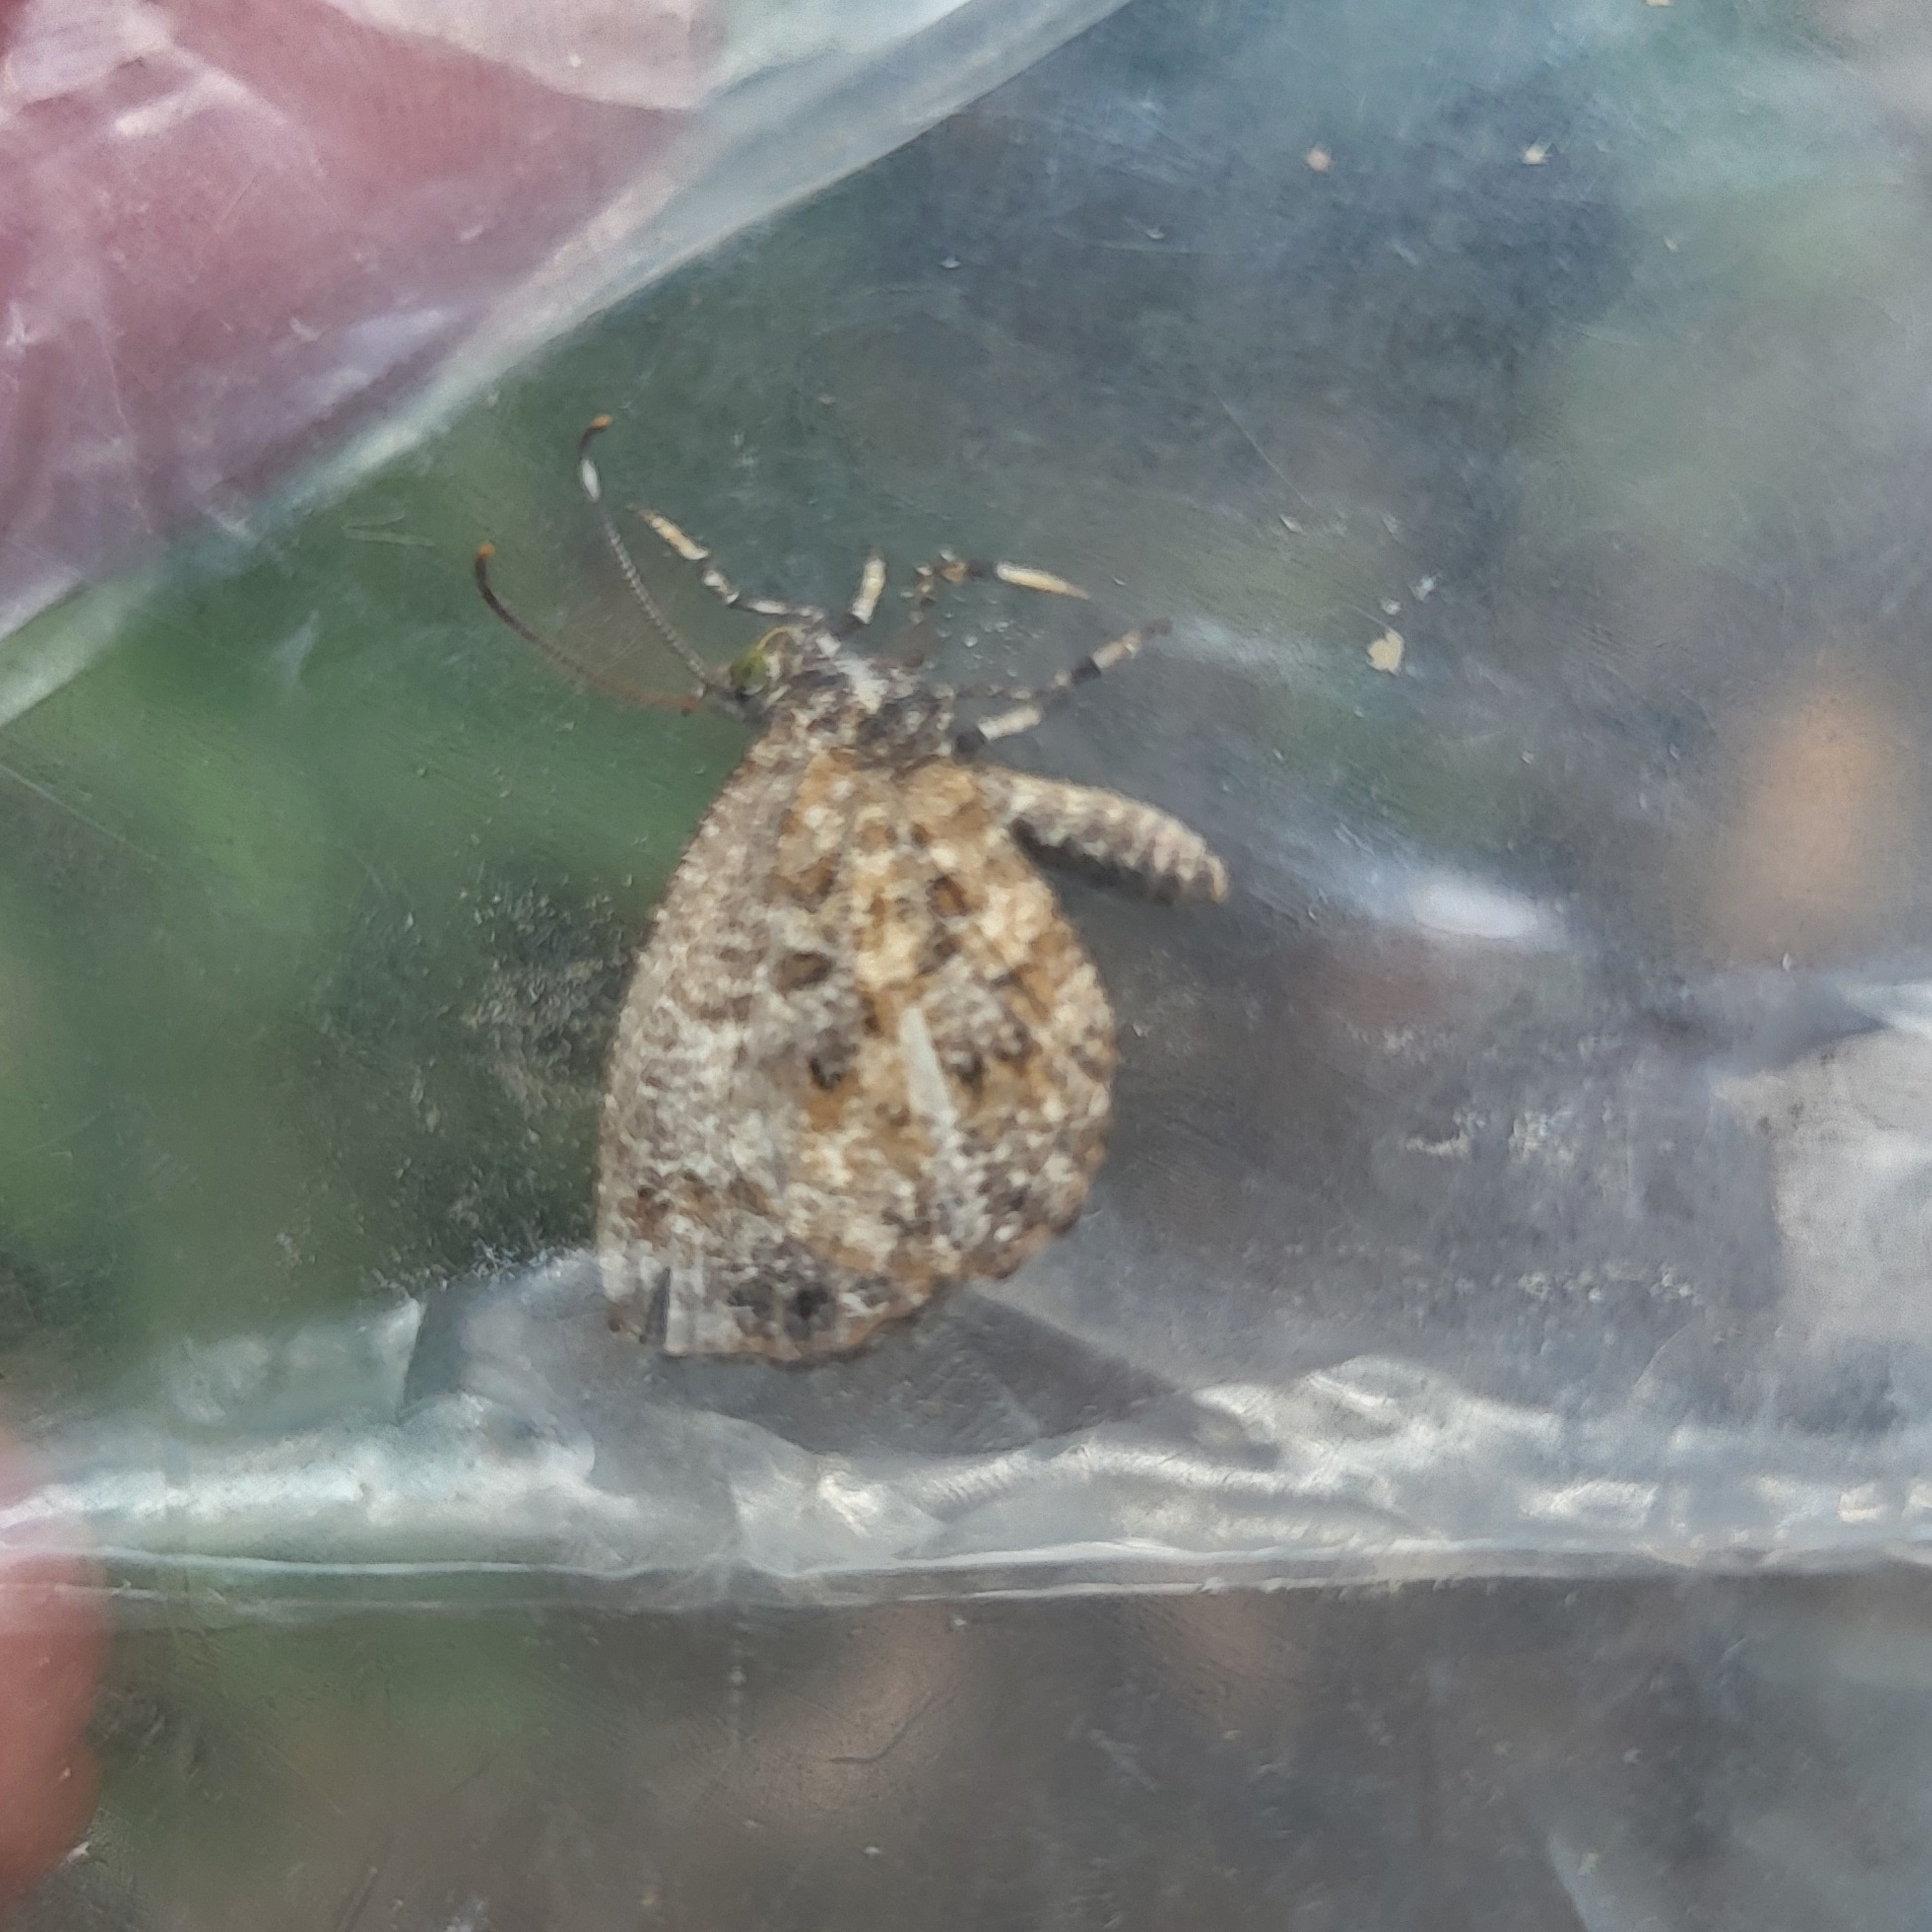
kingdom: Animalia
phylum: Arthropoda
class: Insecta
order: Lepidoptera
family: Lycaenidae
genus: Logania
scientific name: Logania marmorata
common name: Pale mottle
